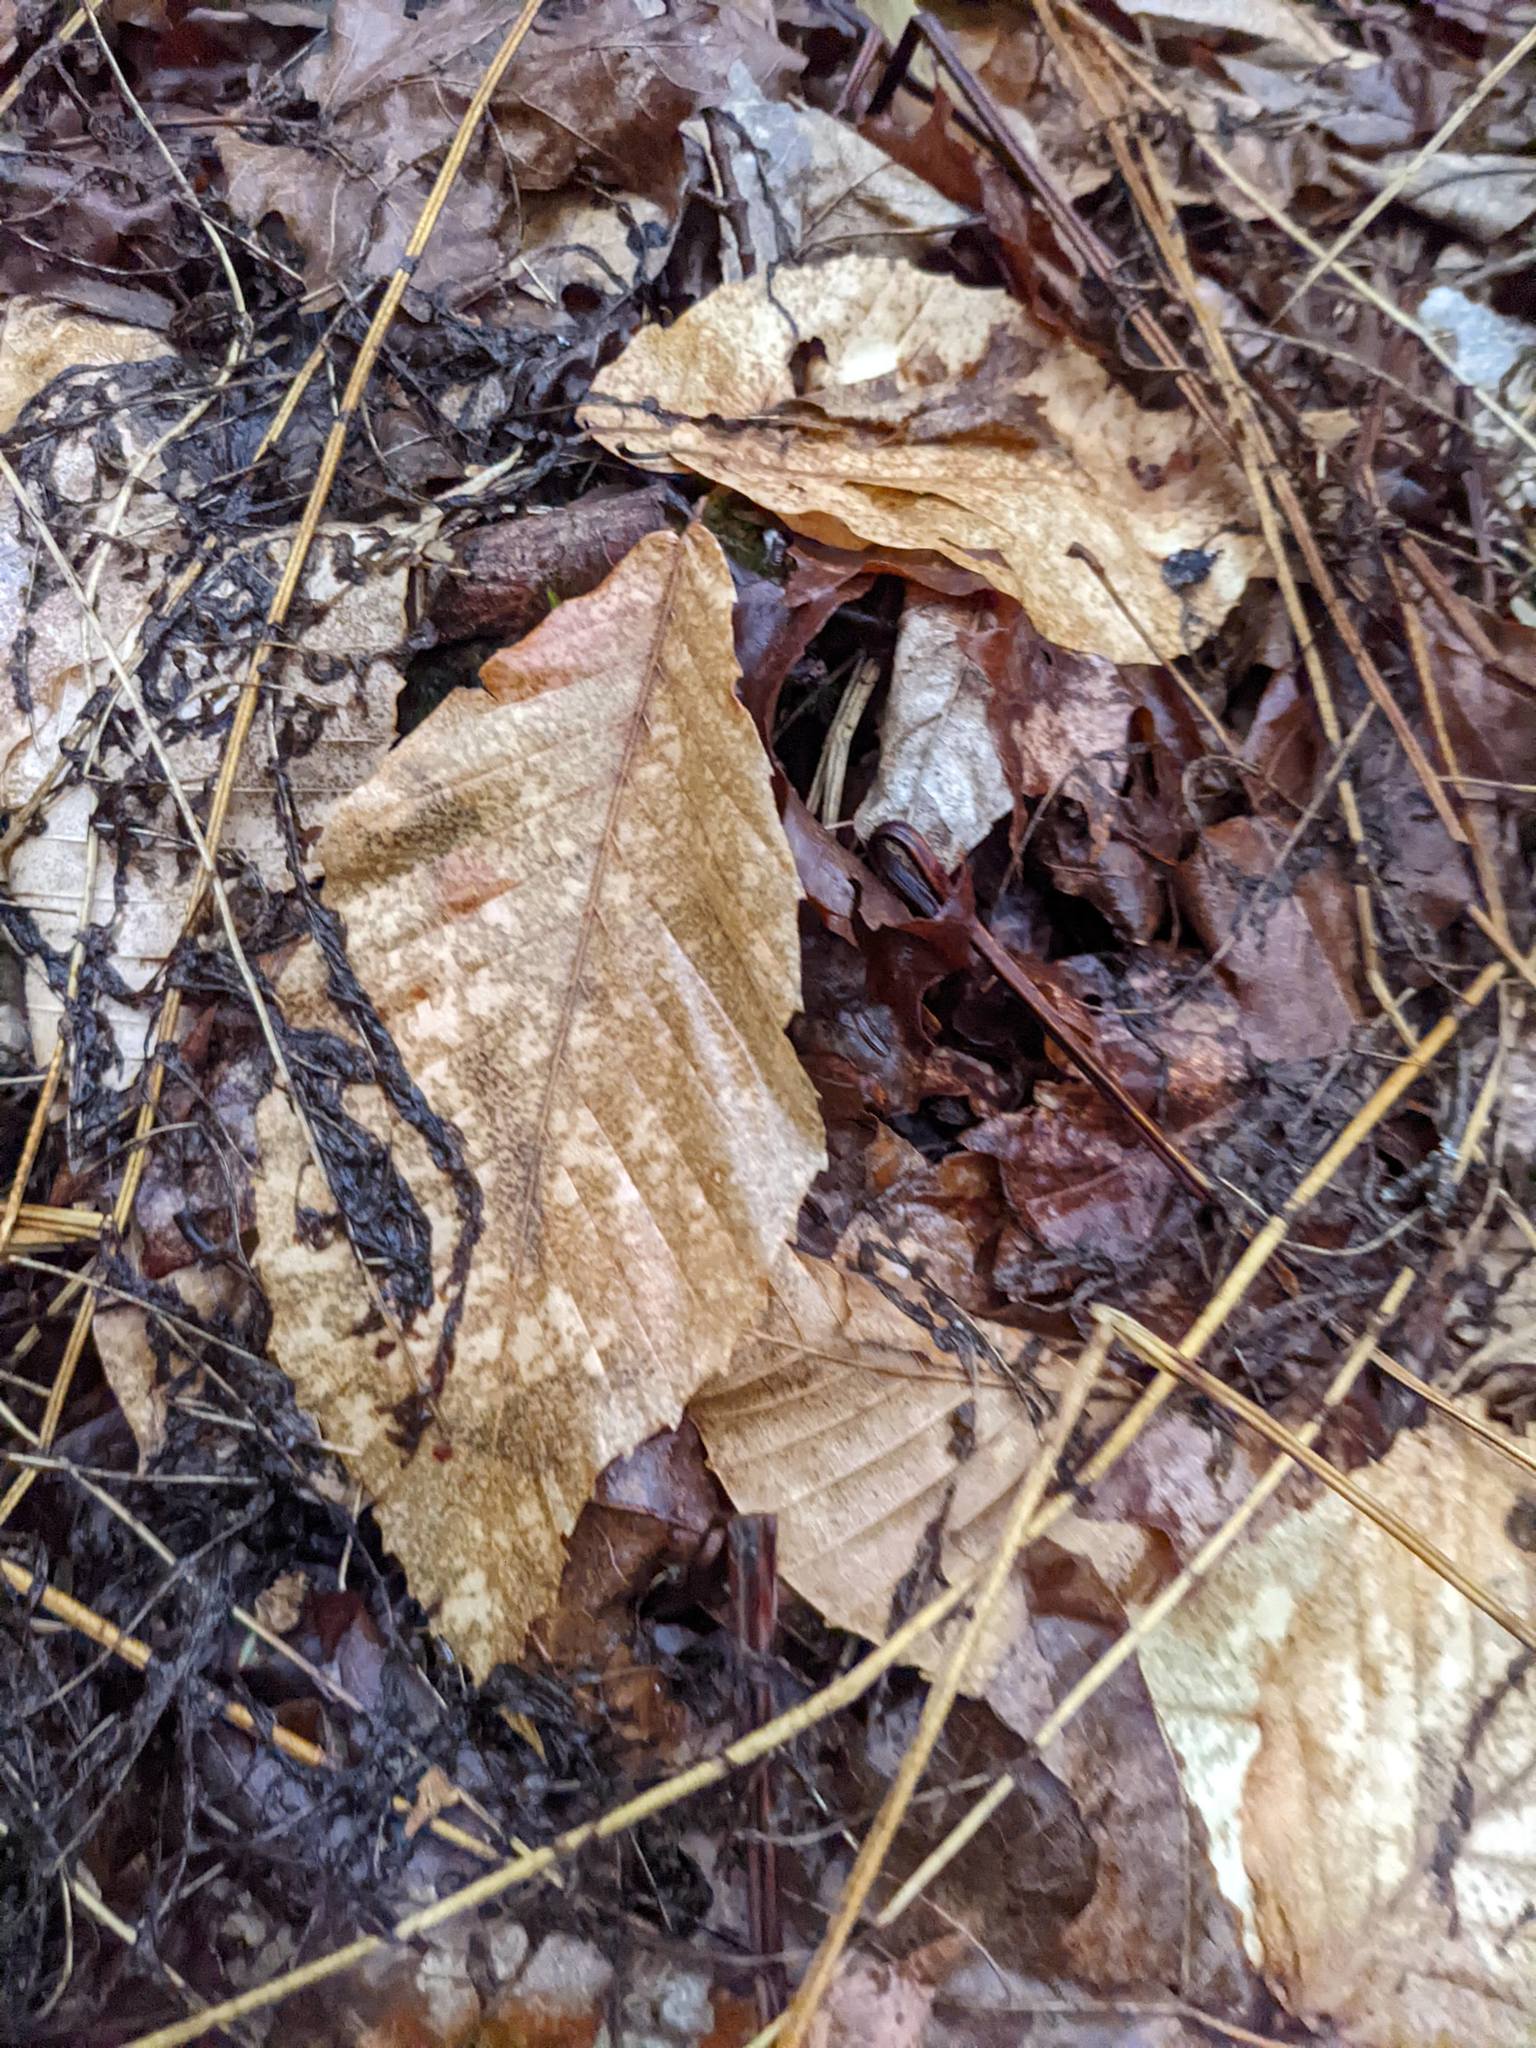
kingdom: Plantae
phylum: Tracheophyta
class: Magnoliopsida
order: Fagales
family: Fagaceae
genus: Fagus
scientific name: Fagus grandifolia
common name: American beech
